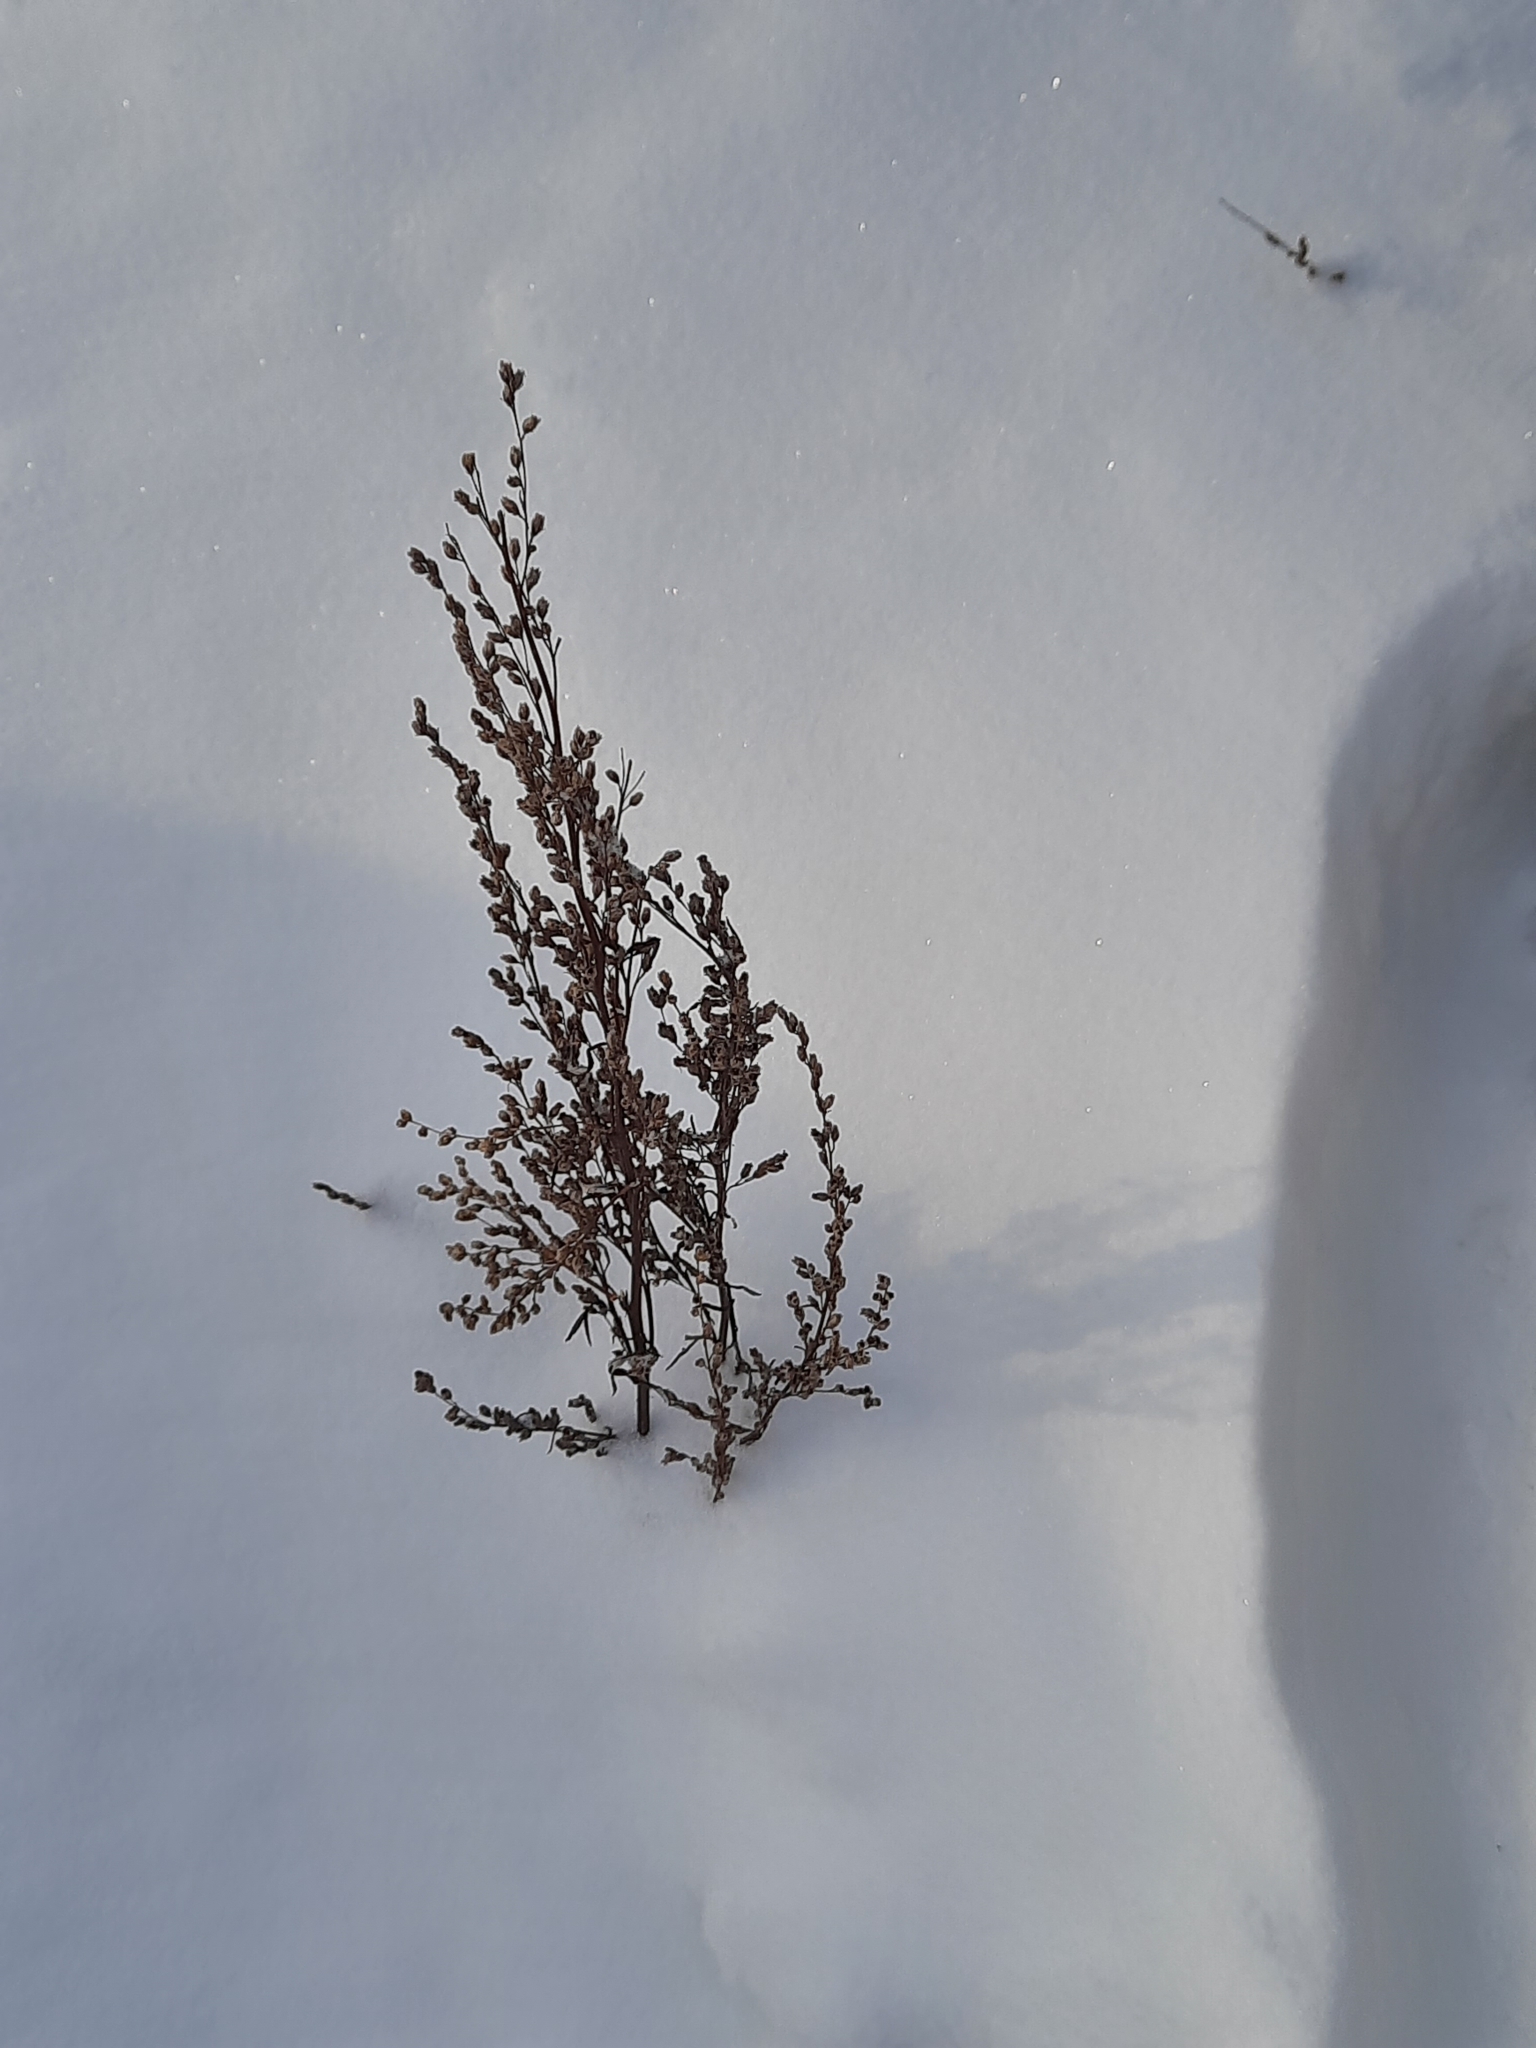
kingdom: Plantae
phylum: Tracheophyta
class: Magnoliopsida
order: Asterales
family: Asteraceae
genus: Artemisia
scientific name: Artemisia vulgaris
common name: Mugwort
